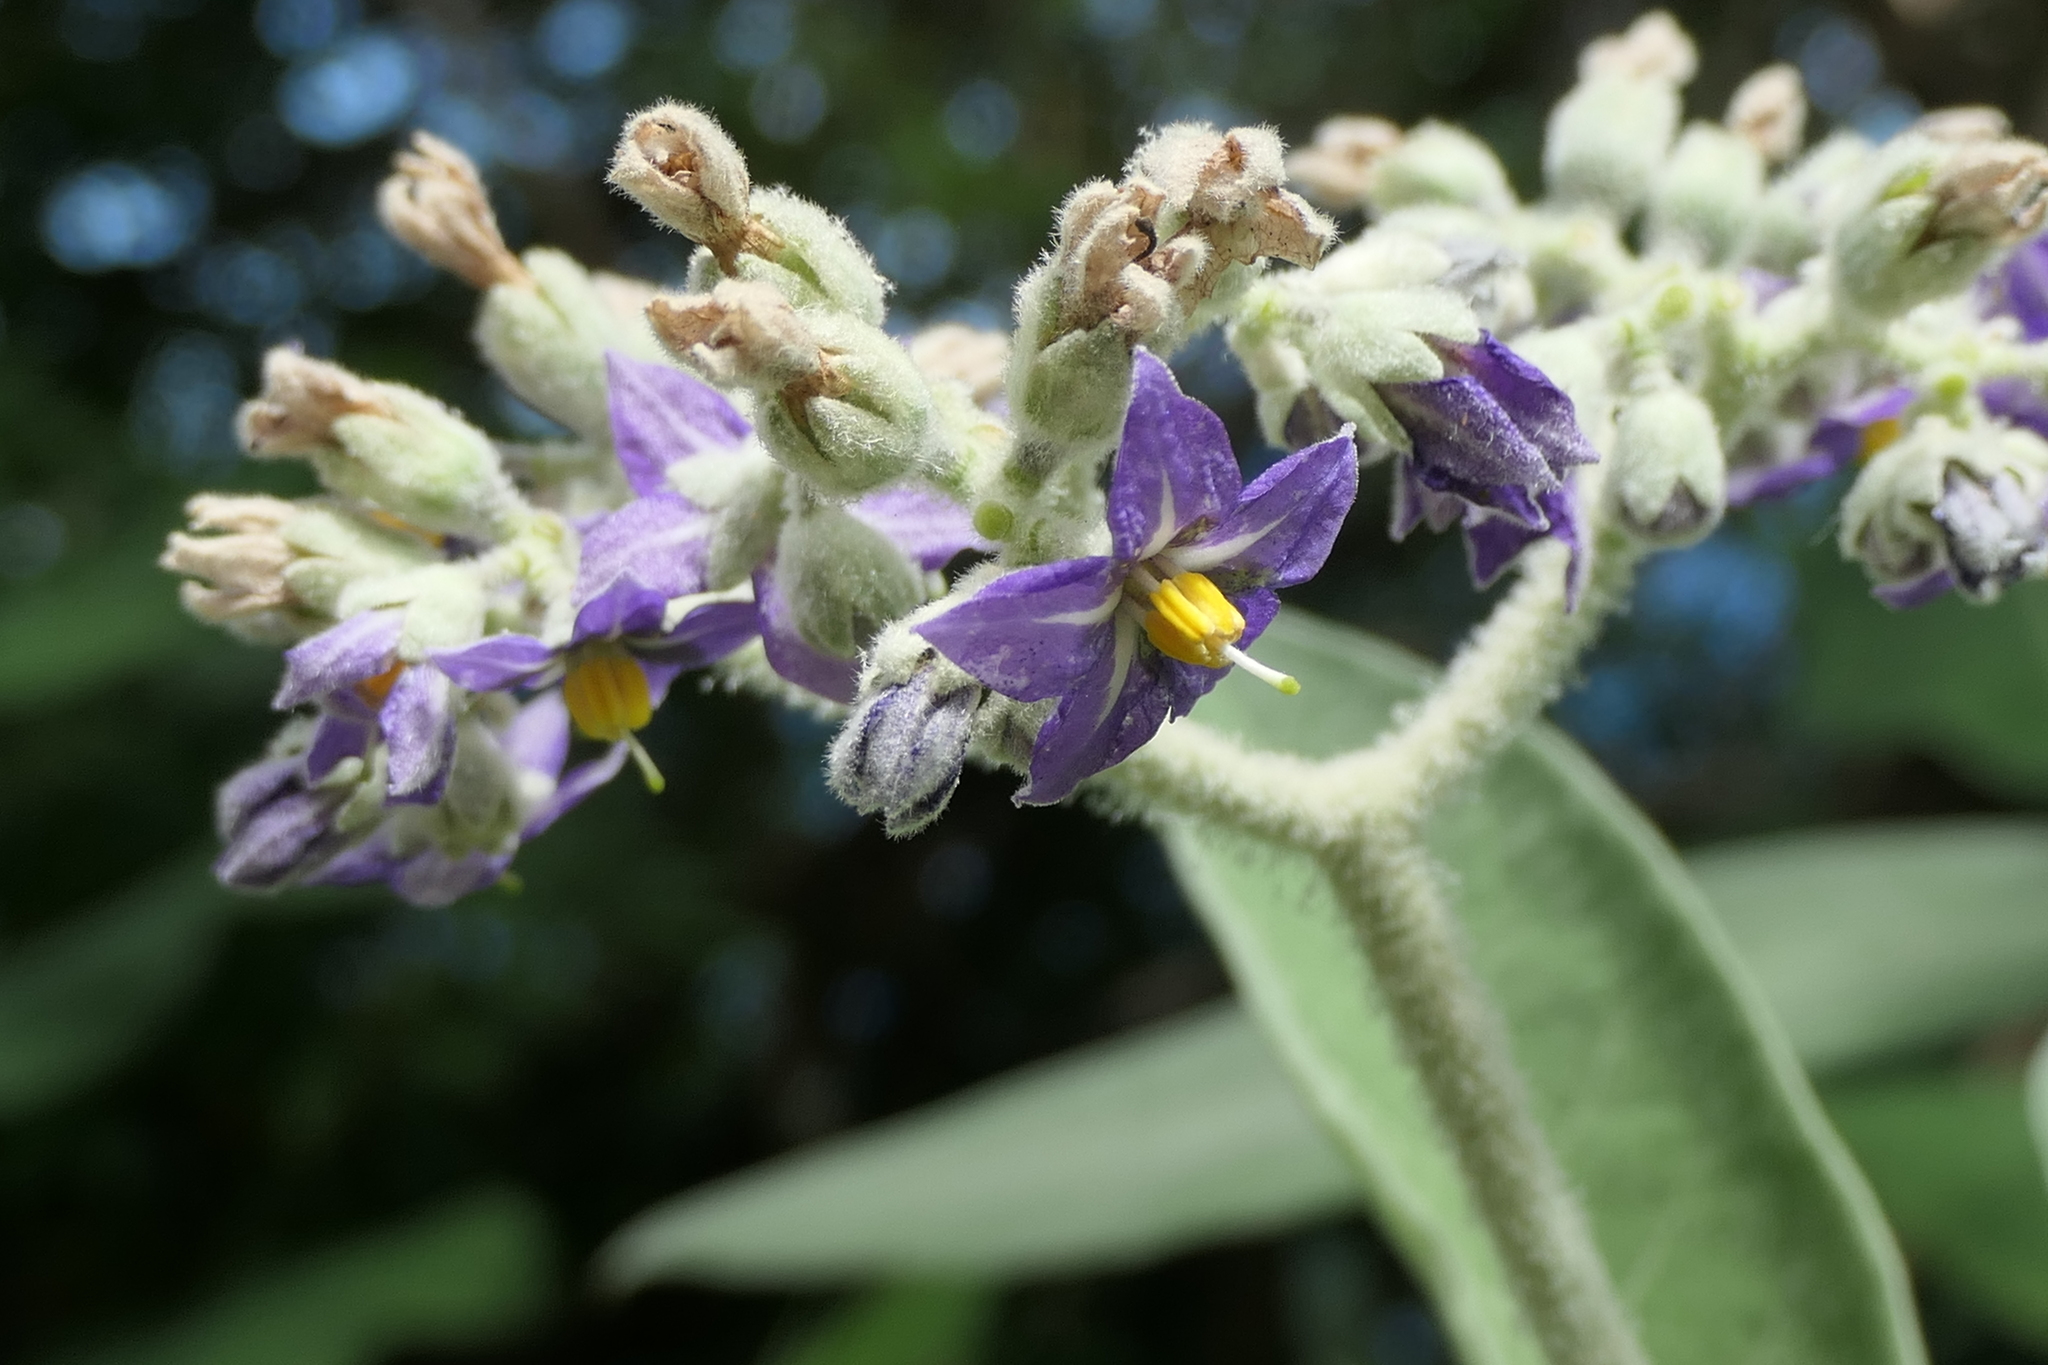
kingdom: Plantae
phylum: Tracheophyta
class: Magnoliopsida
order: Solanales
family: Solanaceae
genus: Solanum
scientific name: Solanum mauritianum
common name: Earleaf nightshade
